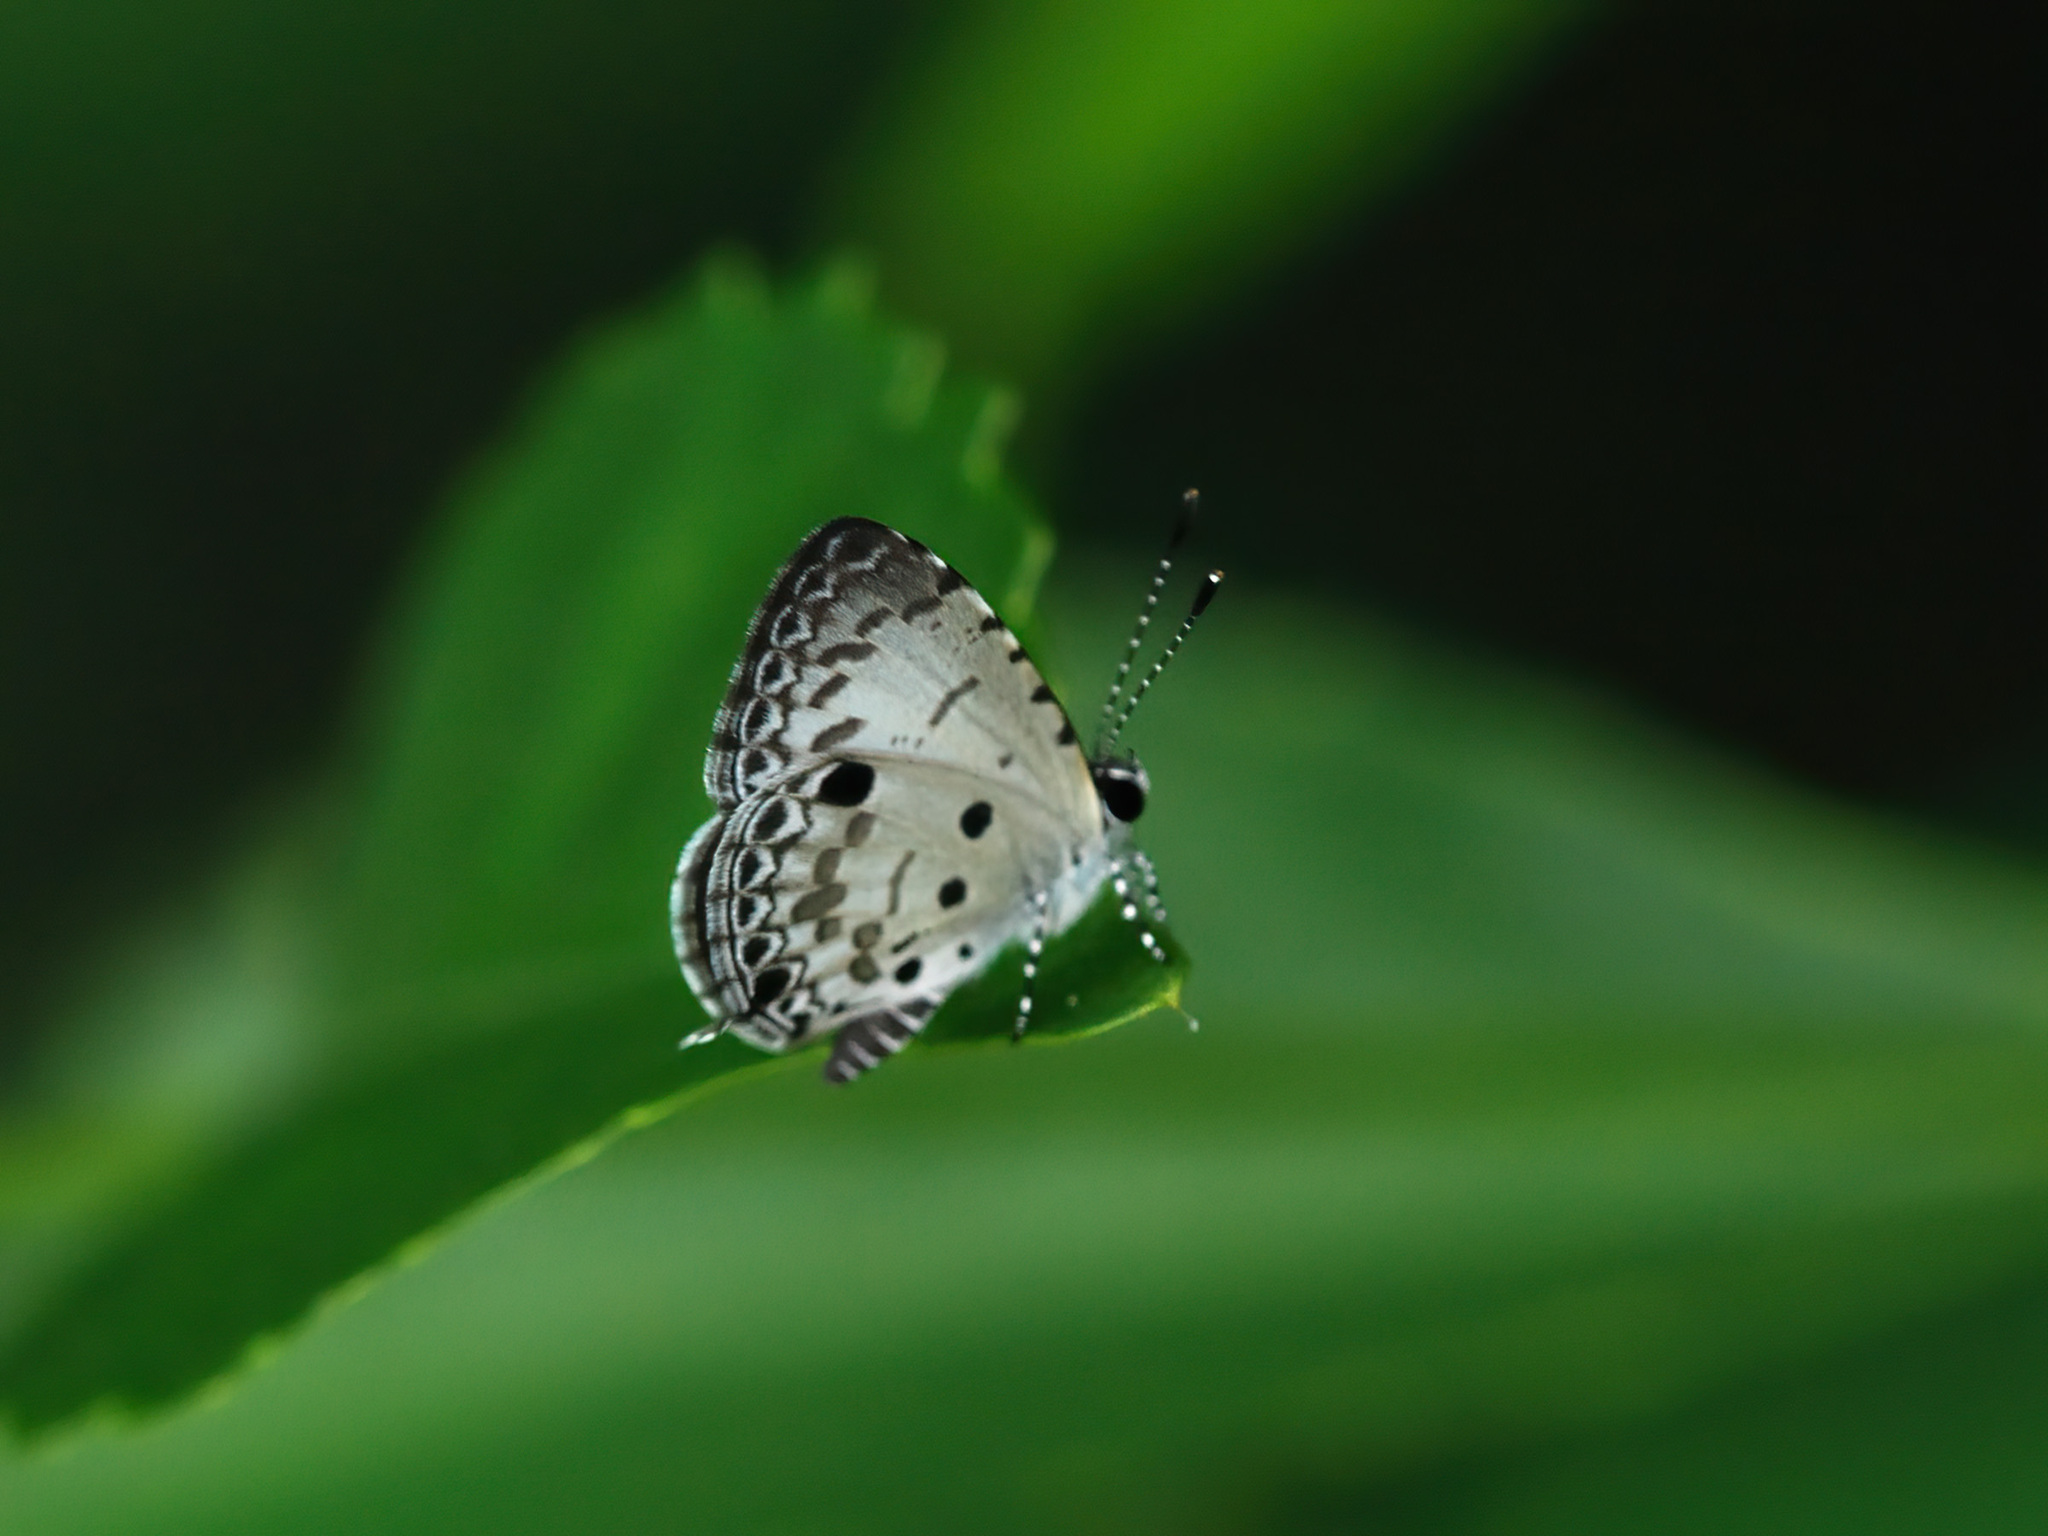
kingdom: Animalia
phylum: Arthropoda
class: Insecta
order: Lepidoptera
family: Lycaenidae
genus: Megisba
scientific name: Megisba malaya
